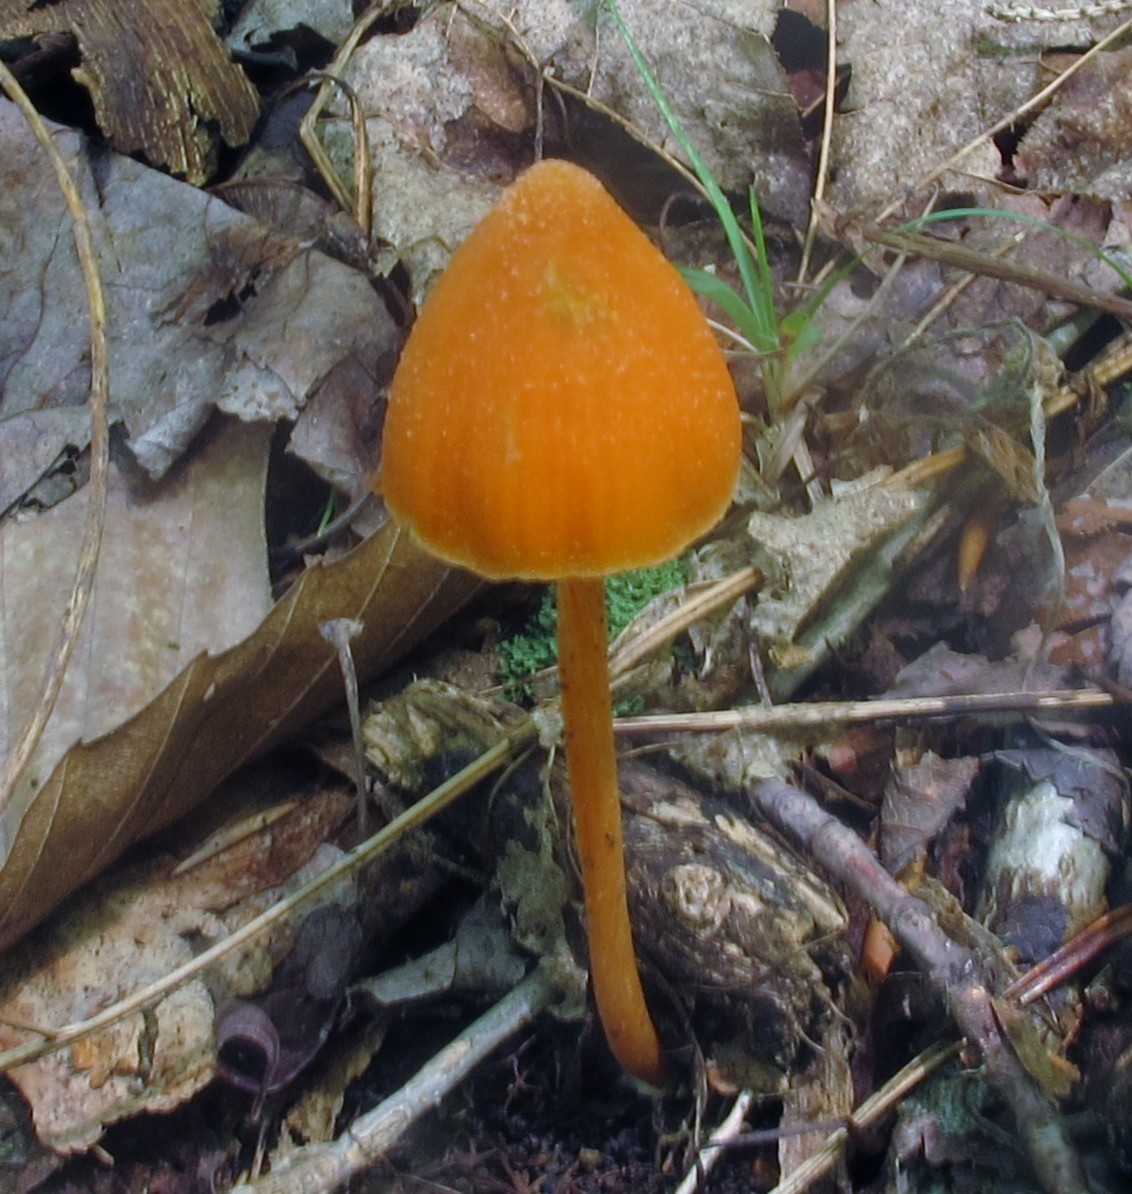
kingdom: Fungi
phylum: Basidiomycota
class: Agaricomycetes
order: Agaricales
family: Entolomataceae
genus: Entoloma
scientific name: Entoloma quadratum
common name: Salmon pinkgill
